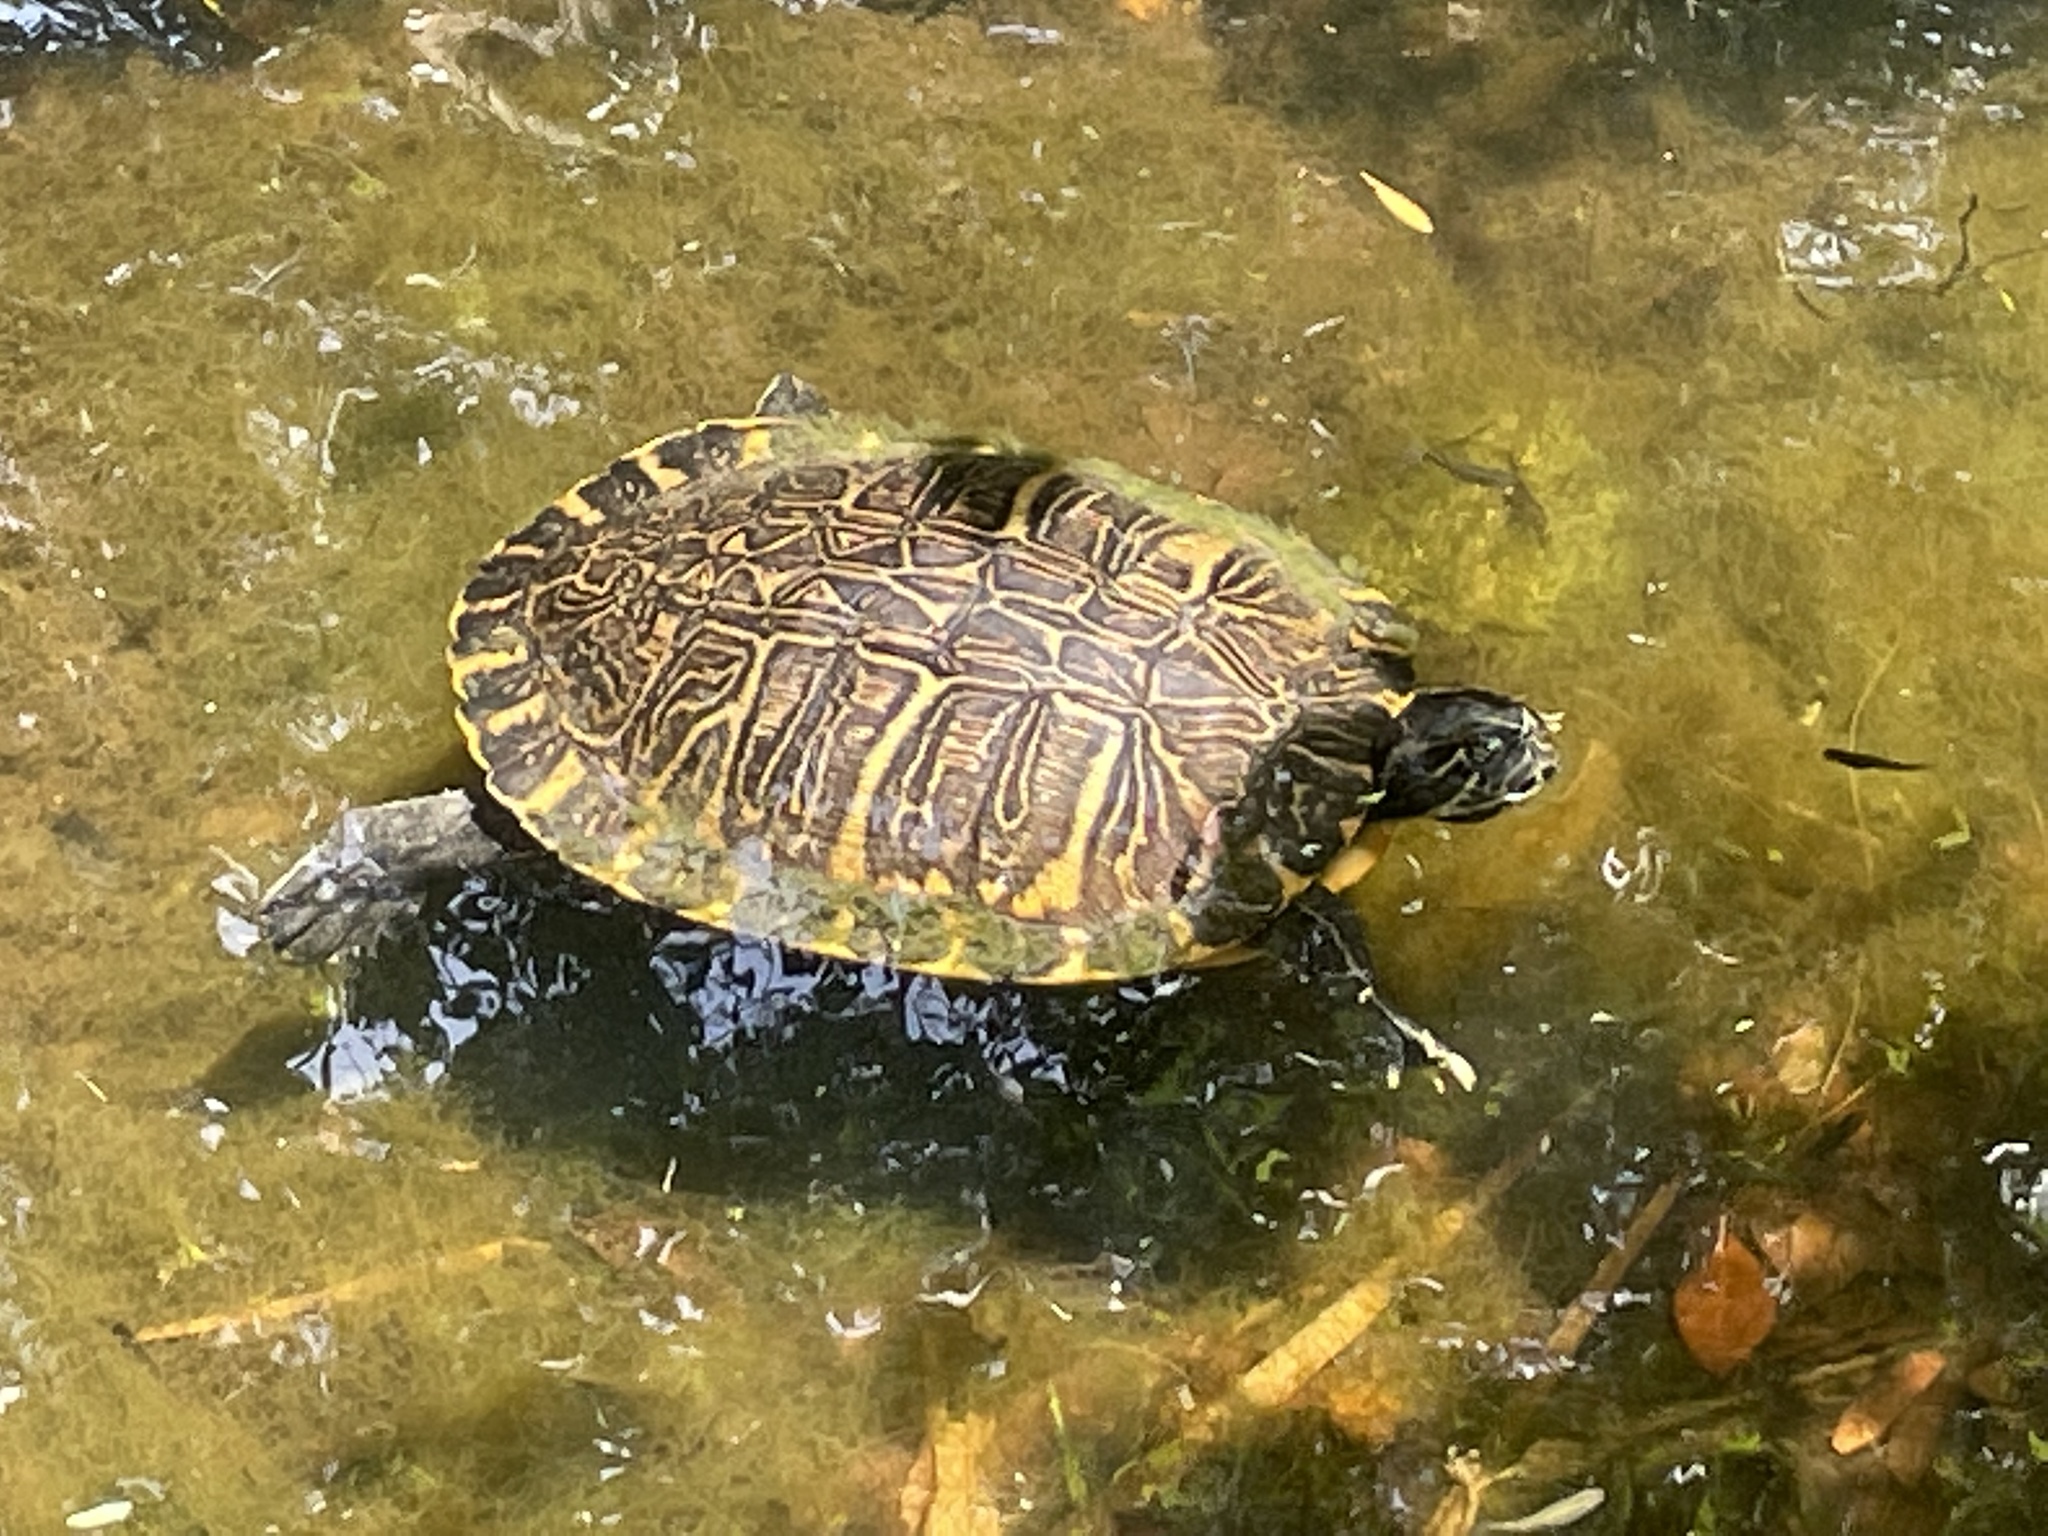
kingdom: Animalia
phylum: Chordata
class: Testudines
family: Emydidae
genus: Pseudemys
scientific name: Pseudemys concinna
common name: Eastern river cooter
